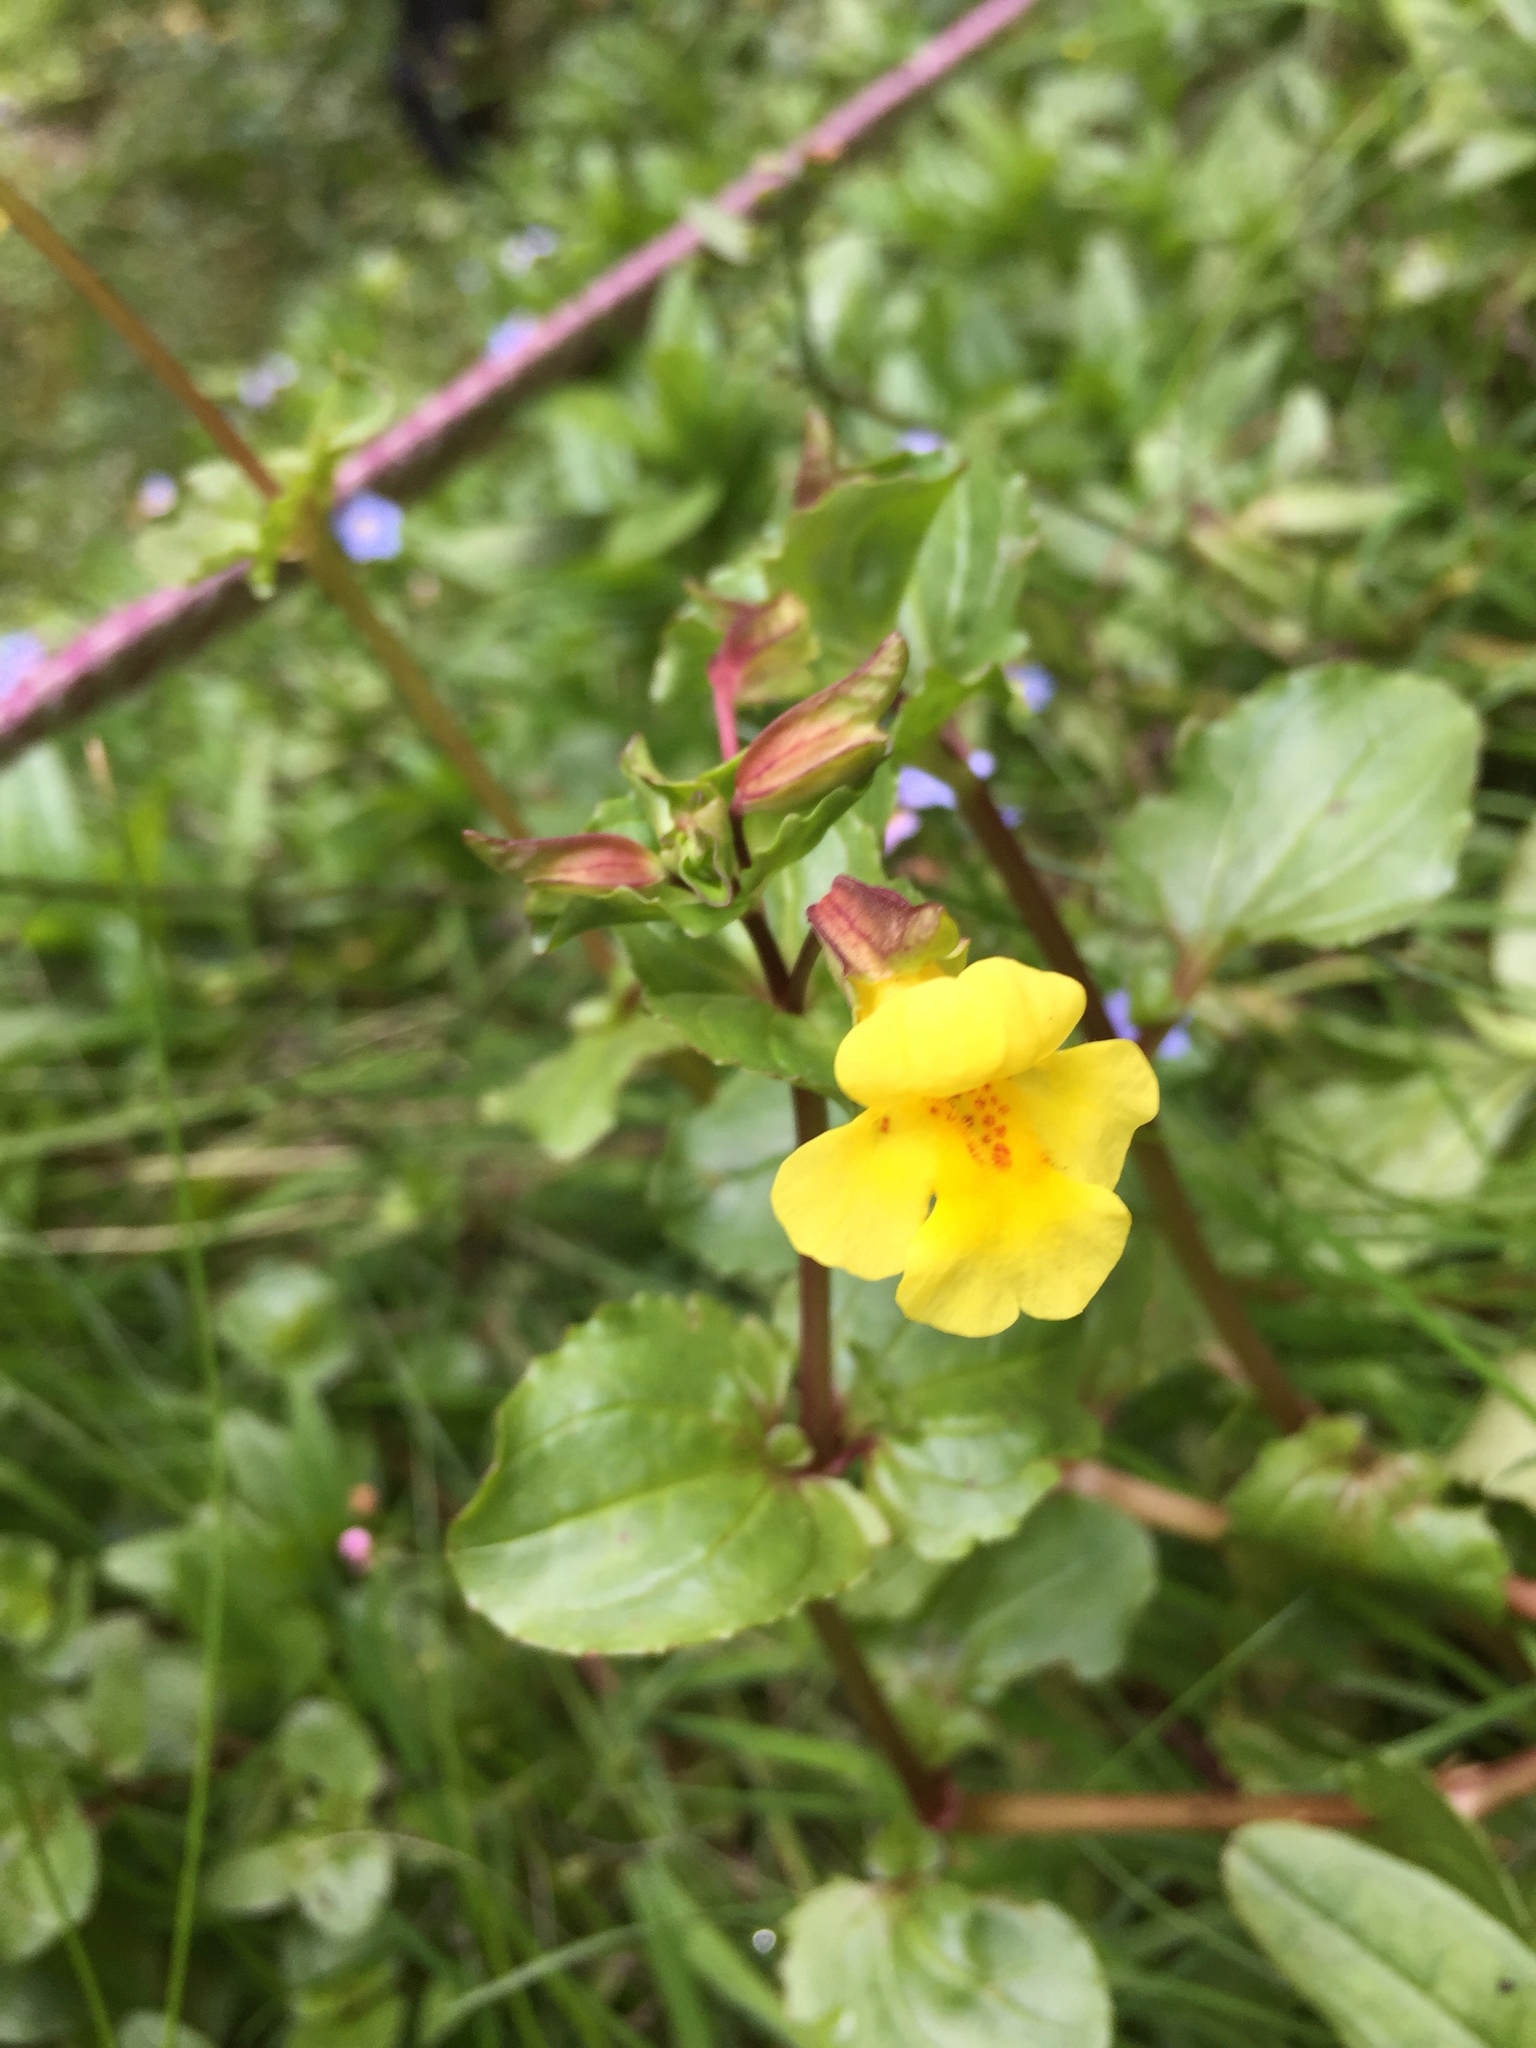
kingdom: Plantae
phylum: Tracheophyta
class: Magnoliopsida
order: Lamiales
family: Phrymaceae
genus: Erythranthe
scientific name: Erythranthe glabrata
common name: Round-leaved monkeyflower
